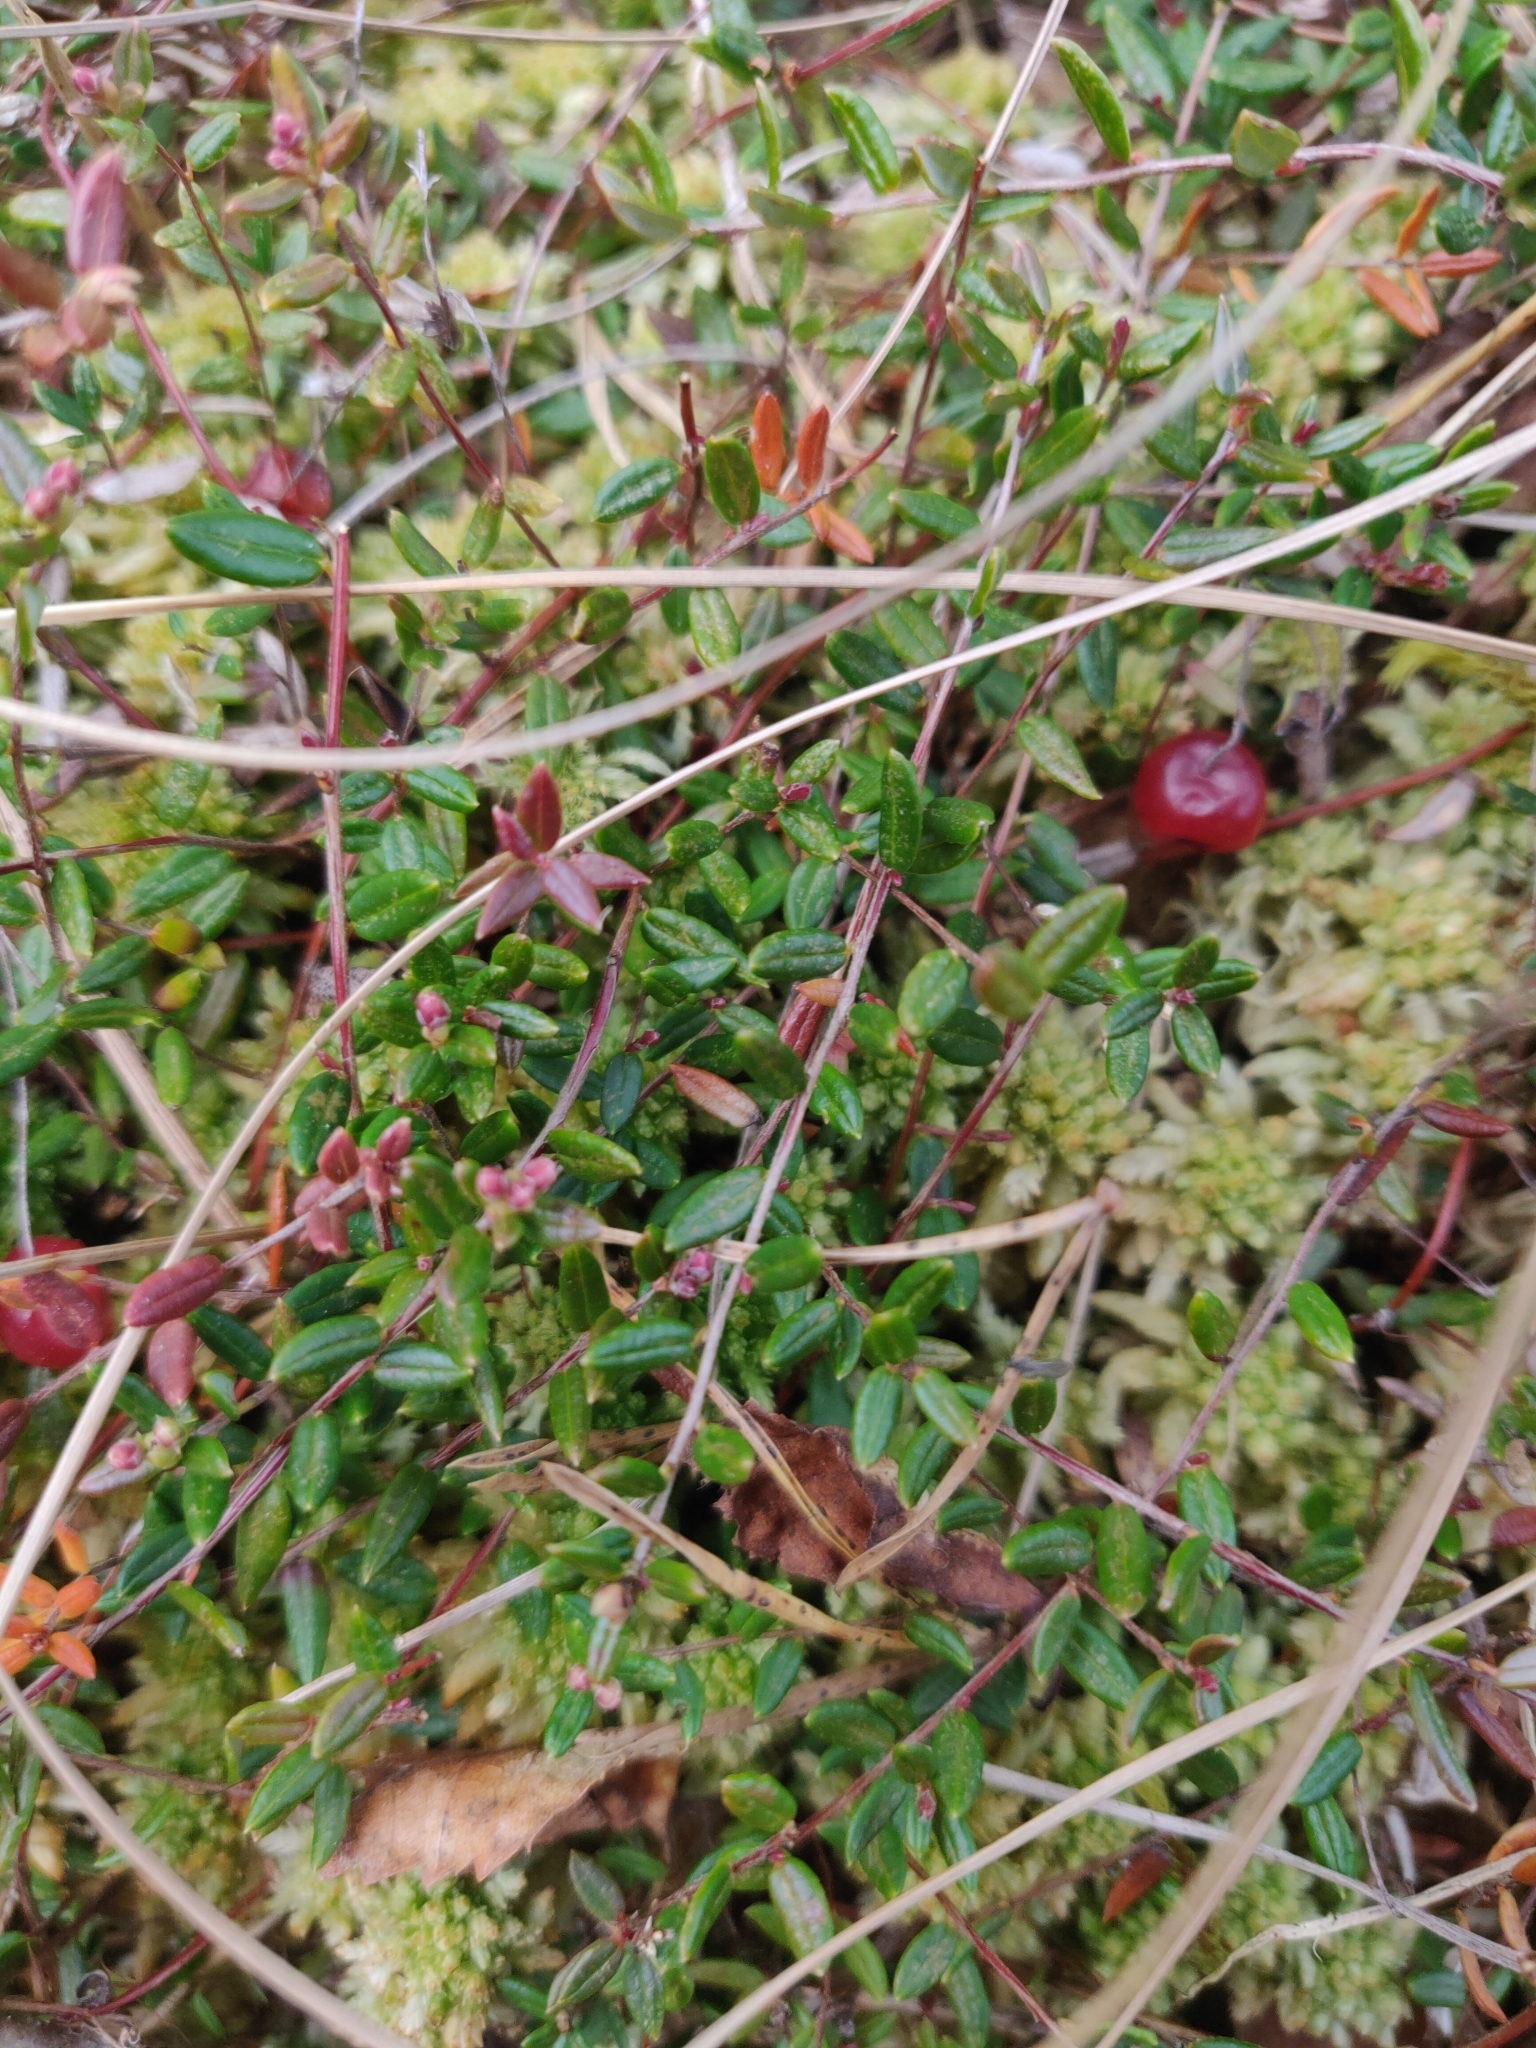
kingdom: Plantae
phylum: Tracheophyta
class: Magnoliopsida
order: Ericales
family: Ericaceae
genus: Vaccinium
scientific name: Vaccinium oxycoccos
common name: Cranberry
